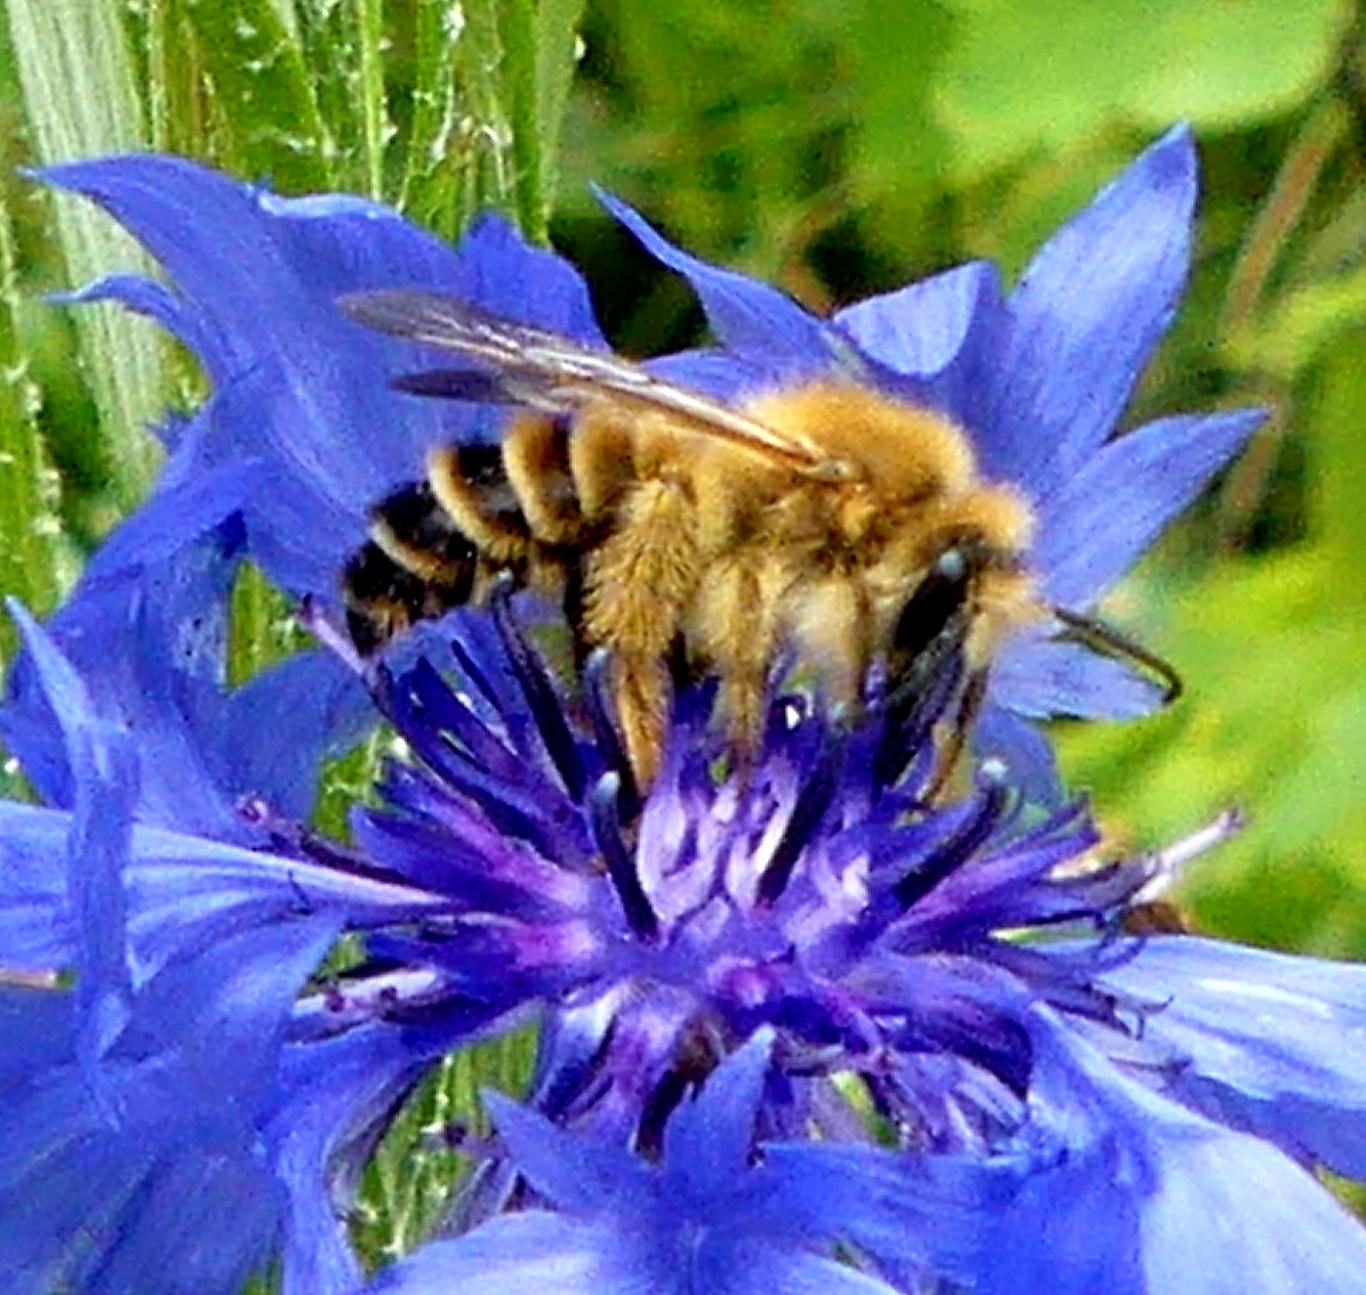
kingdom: Animalia
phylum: Arthropoda
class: Insecta
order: Hymenoptera
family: Melittidae
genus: Dasypoda
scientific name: Dasypoda hirtipes
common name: Pantaloon bee
